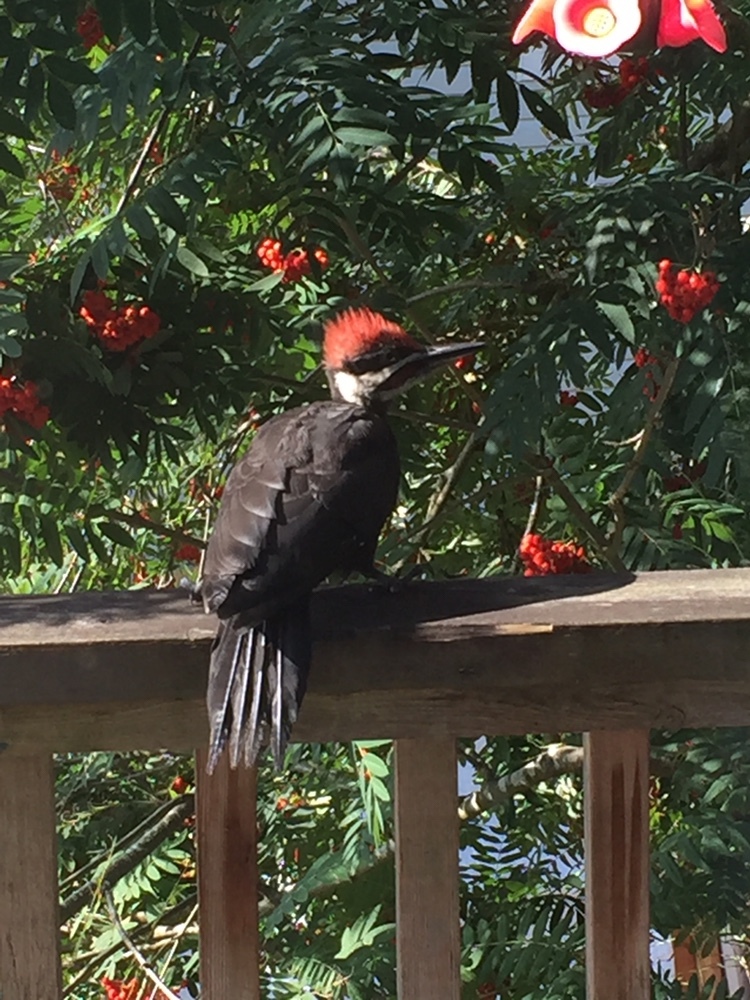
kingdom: Animalia
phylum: Chordata
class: Aves
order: Piciformes
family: Picidae
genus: Dryocopus
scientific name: Dryocopus pileatus
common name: Pileated woodpecker
